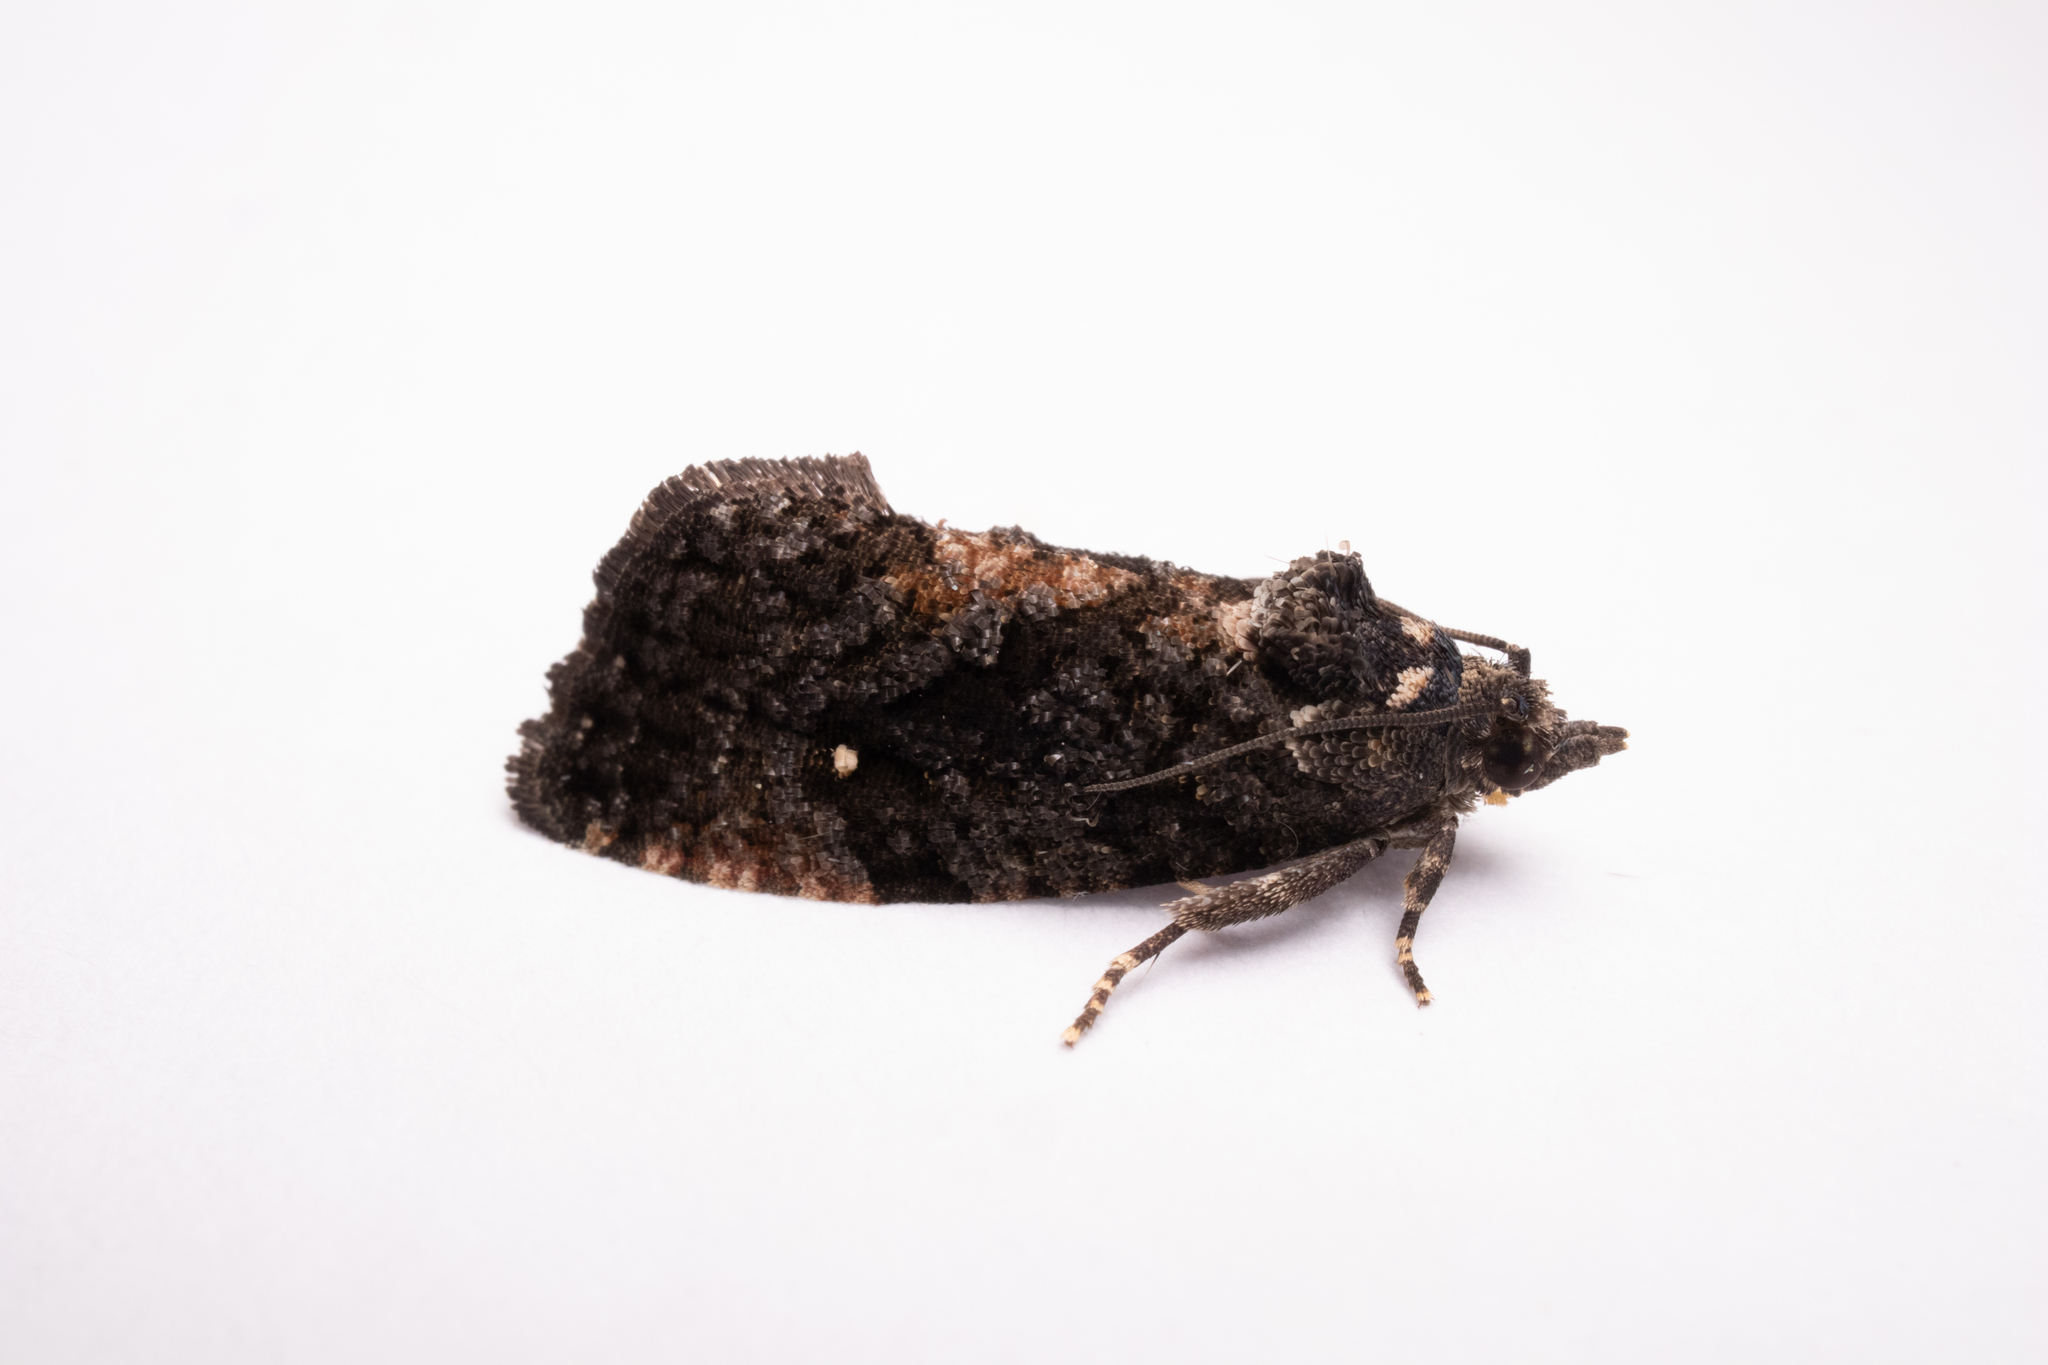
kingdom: Animalia
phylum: Arthropoda
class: Insecta
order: Lepidoptera
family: Tortricidae
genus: Gymnandrosoma
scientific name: Gymnandrosoma punctidiscanum
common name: Dotted ecdytolopha moth
